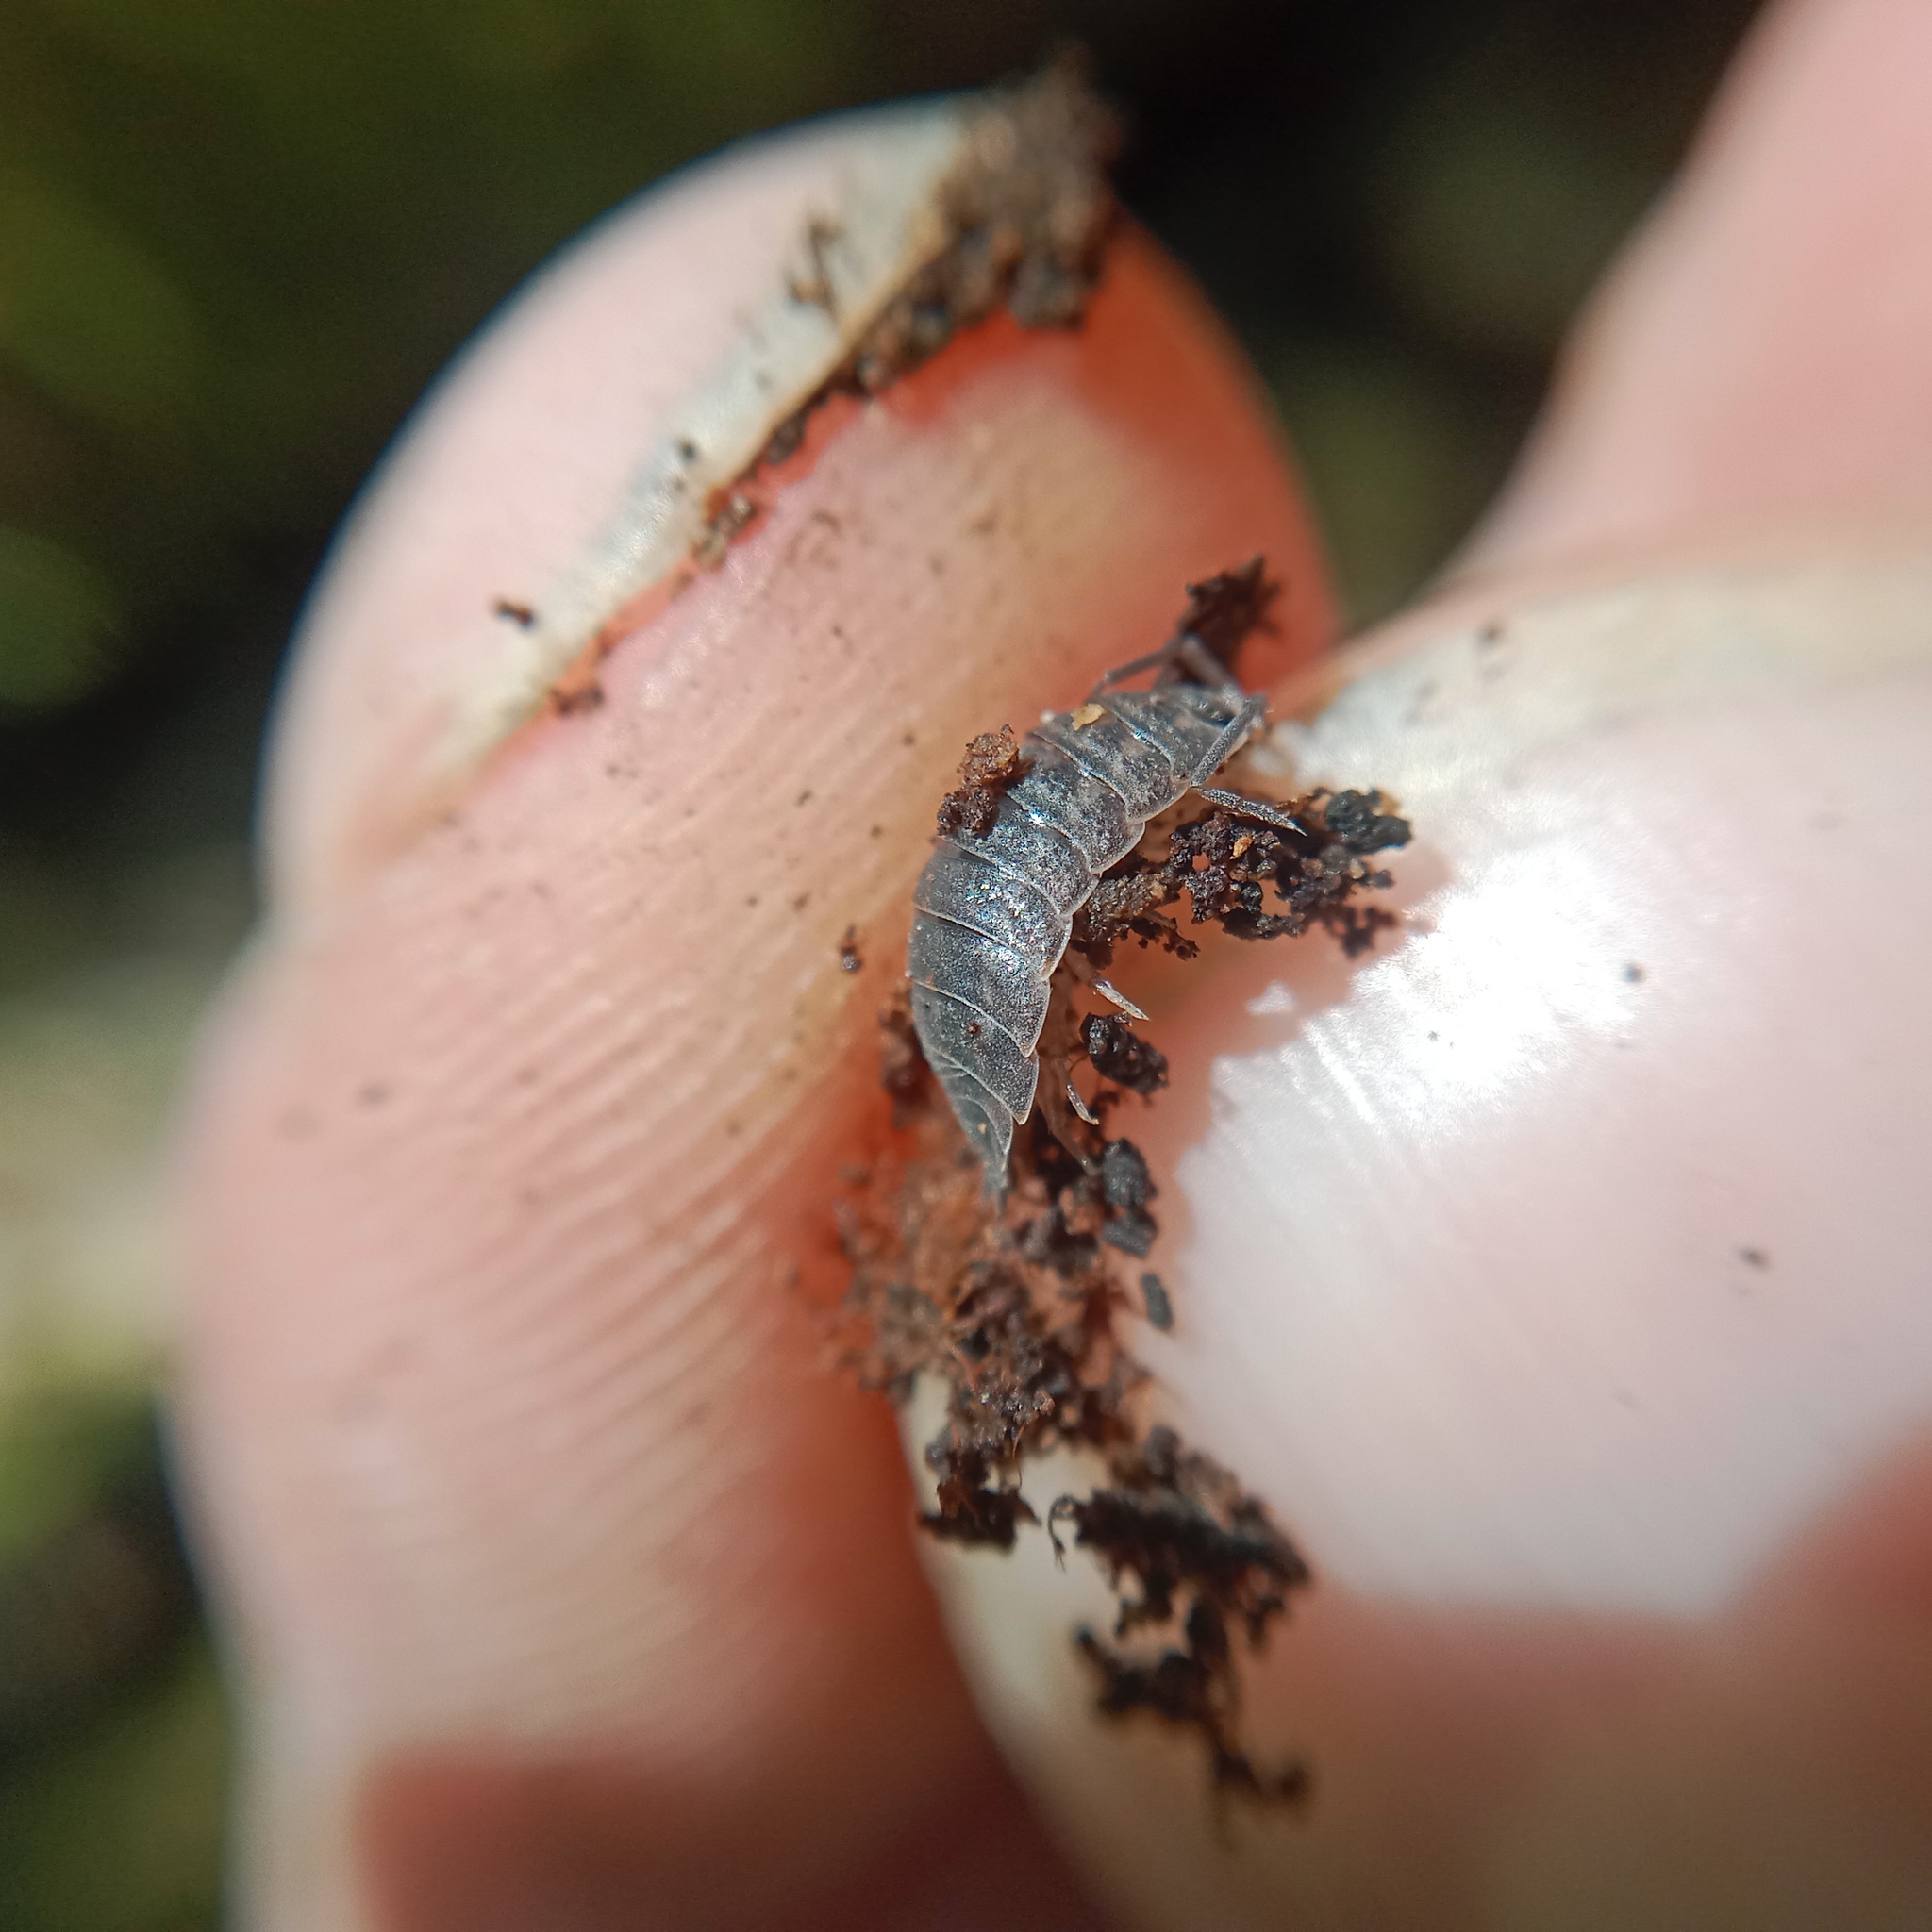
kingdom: Animalia
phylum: Arthropoda
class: Malacostraca
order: Isopoda
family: Trachelipodidae
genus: Trachelipus
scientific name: Trachelipus rathkii
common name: Isopod
